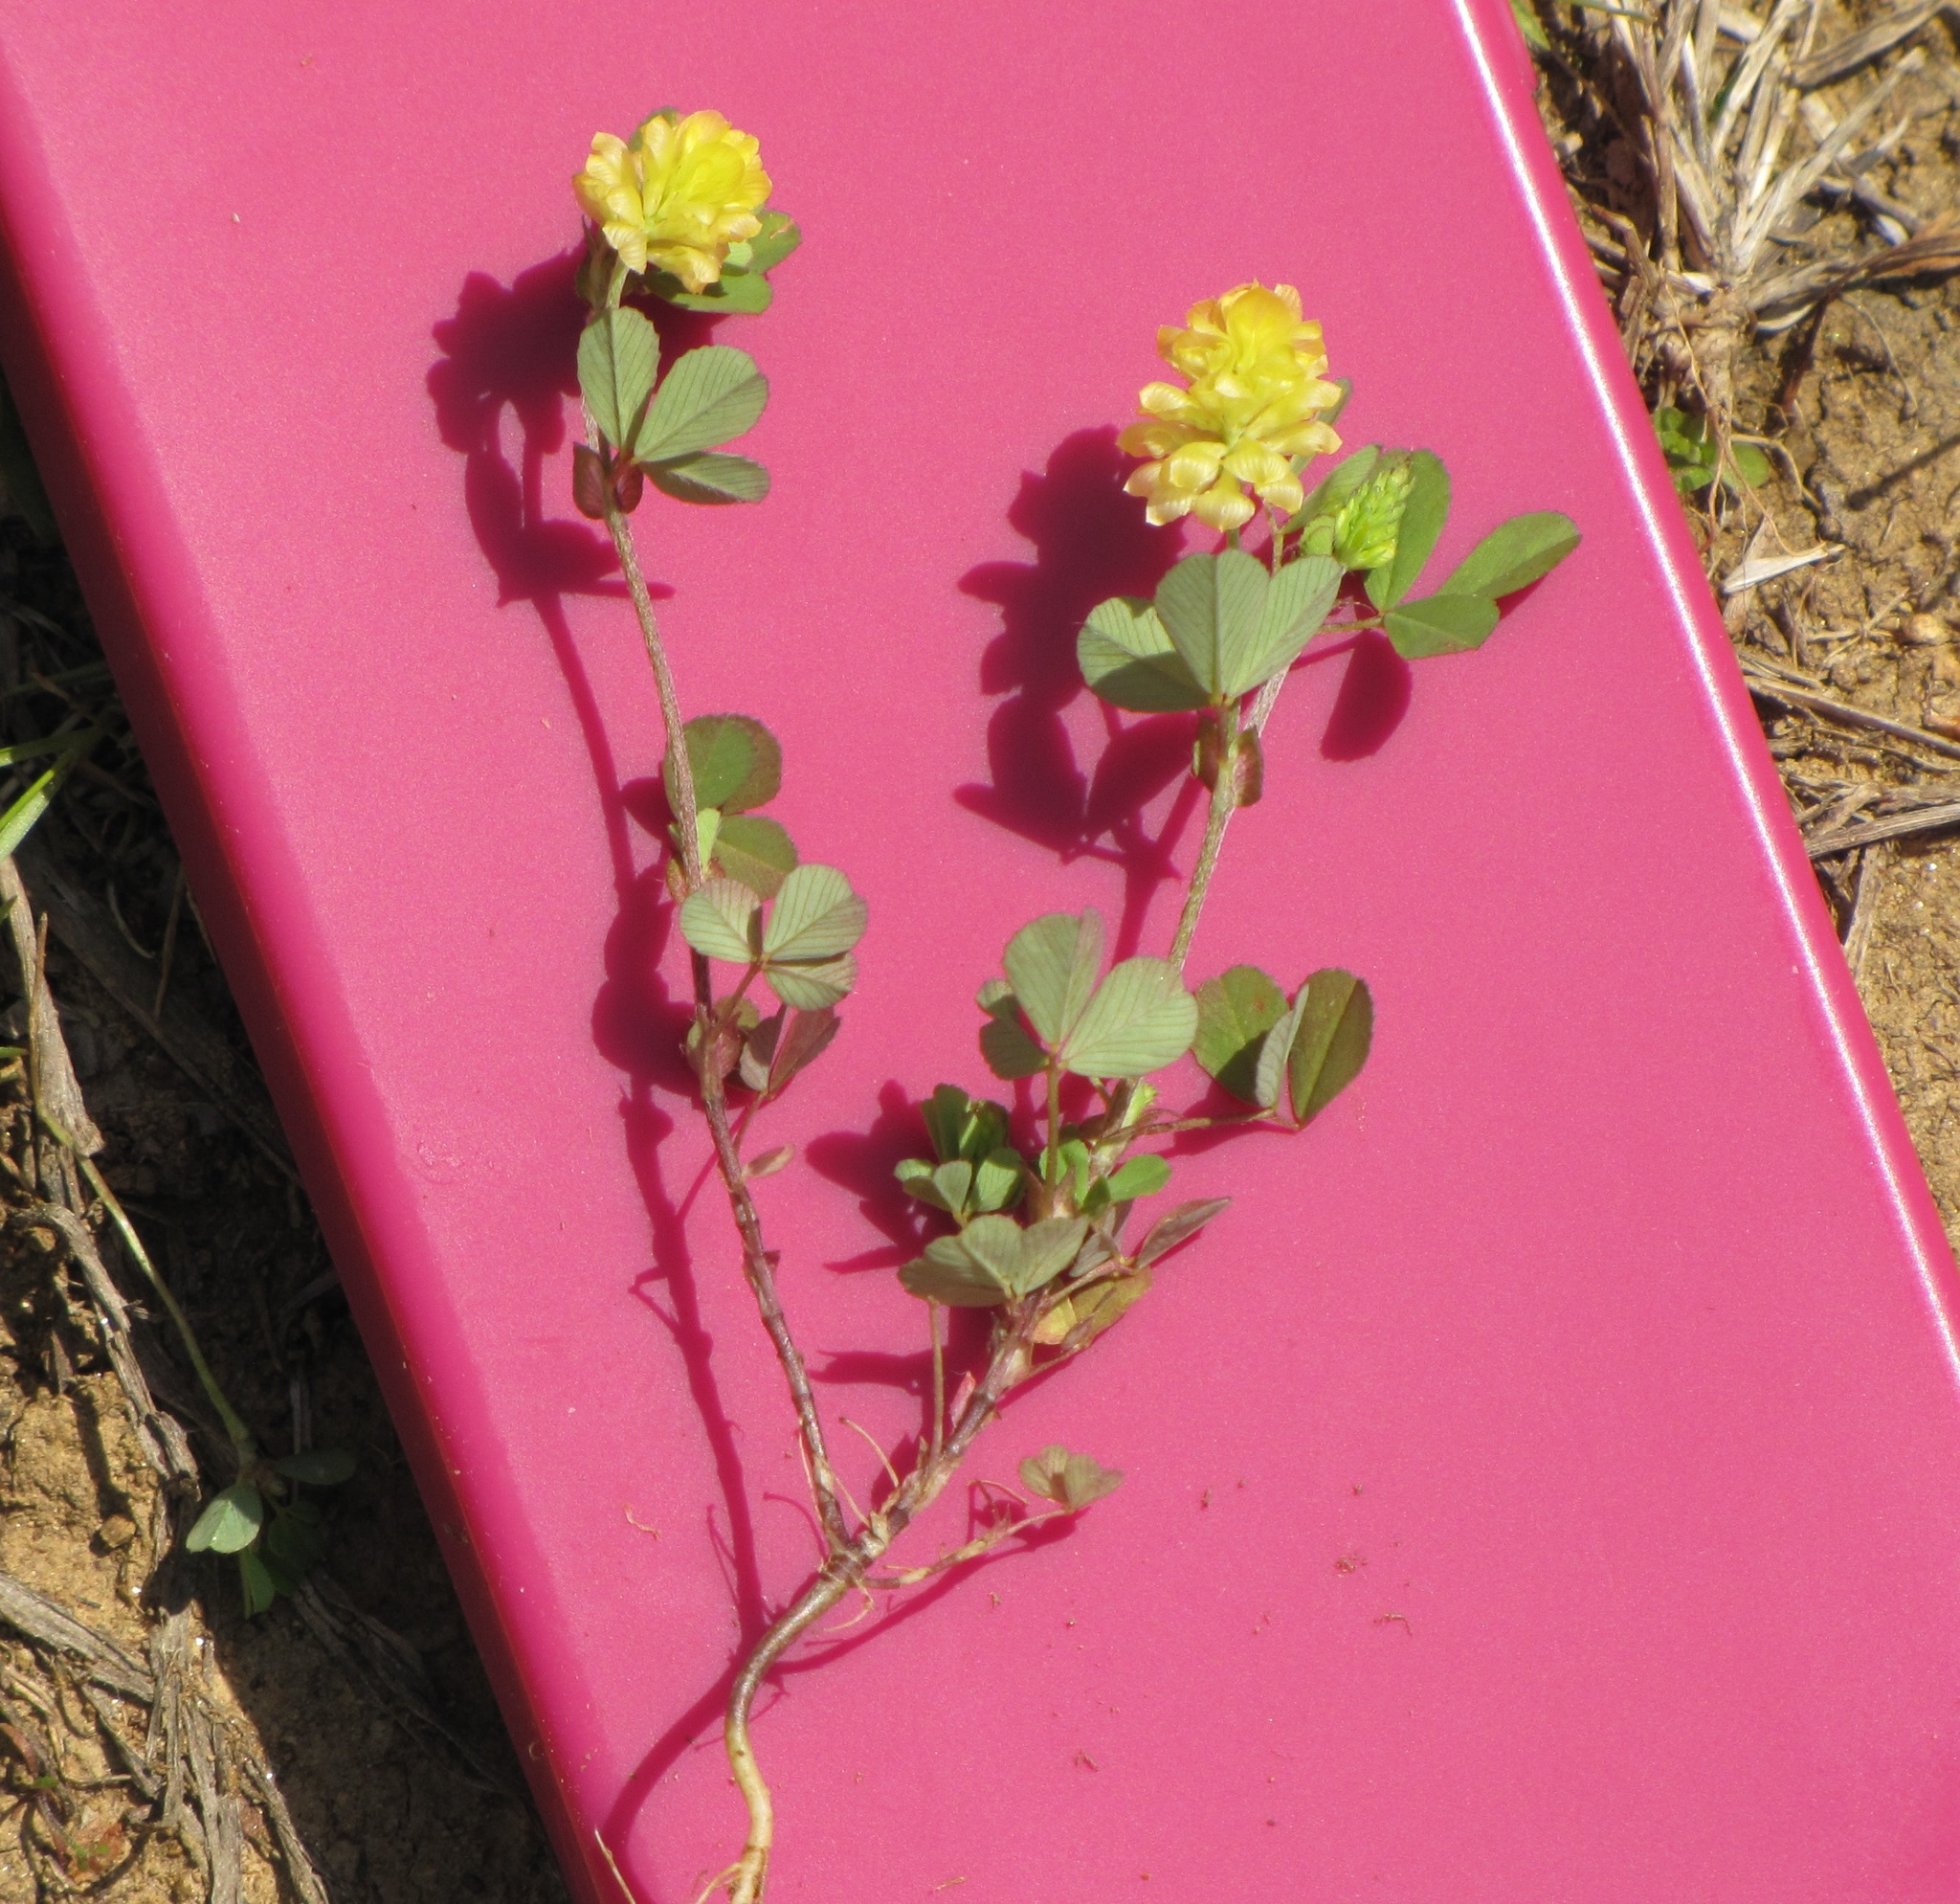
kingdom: Plantae
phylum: Tracheophyta
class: Magnoliopsida
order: Fabales
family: Fabaceae
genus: Trifolium
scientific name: Trifolium campestre
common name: Field clover
